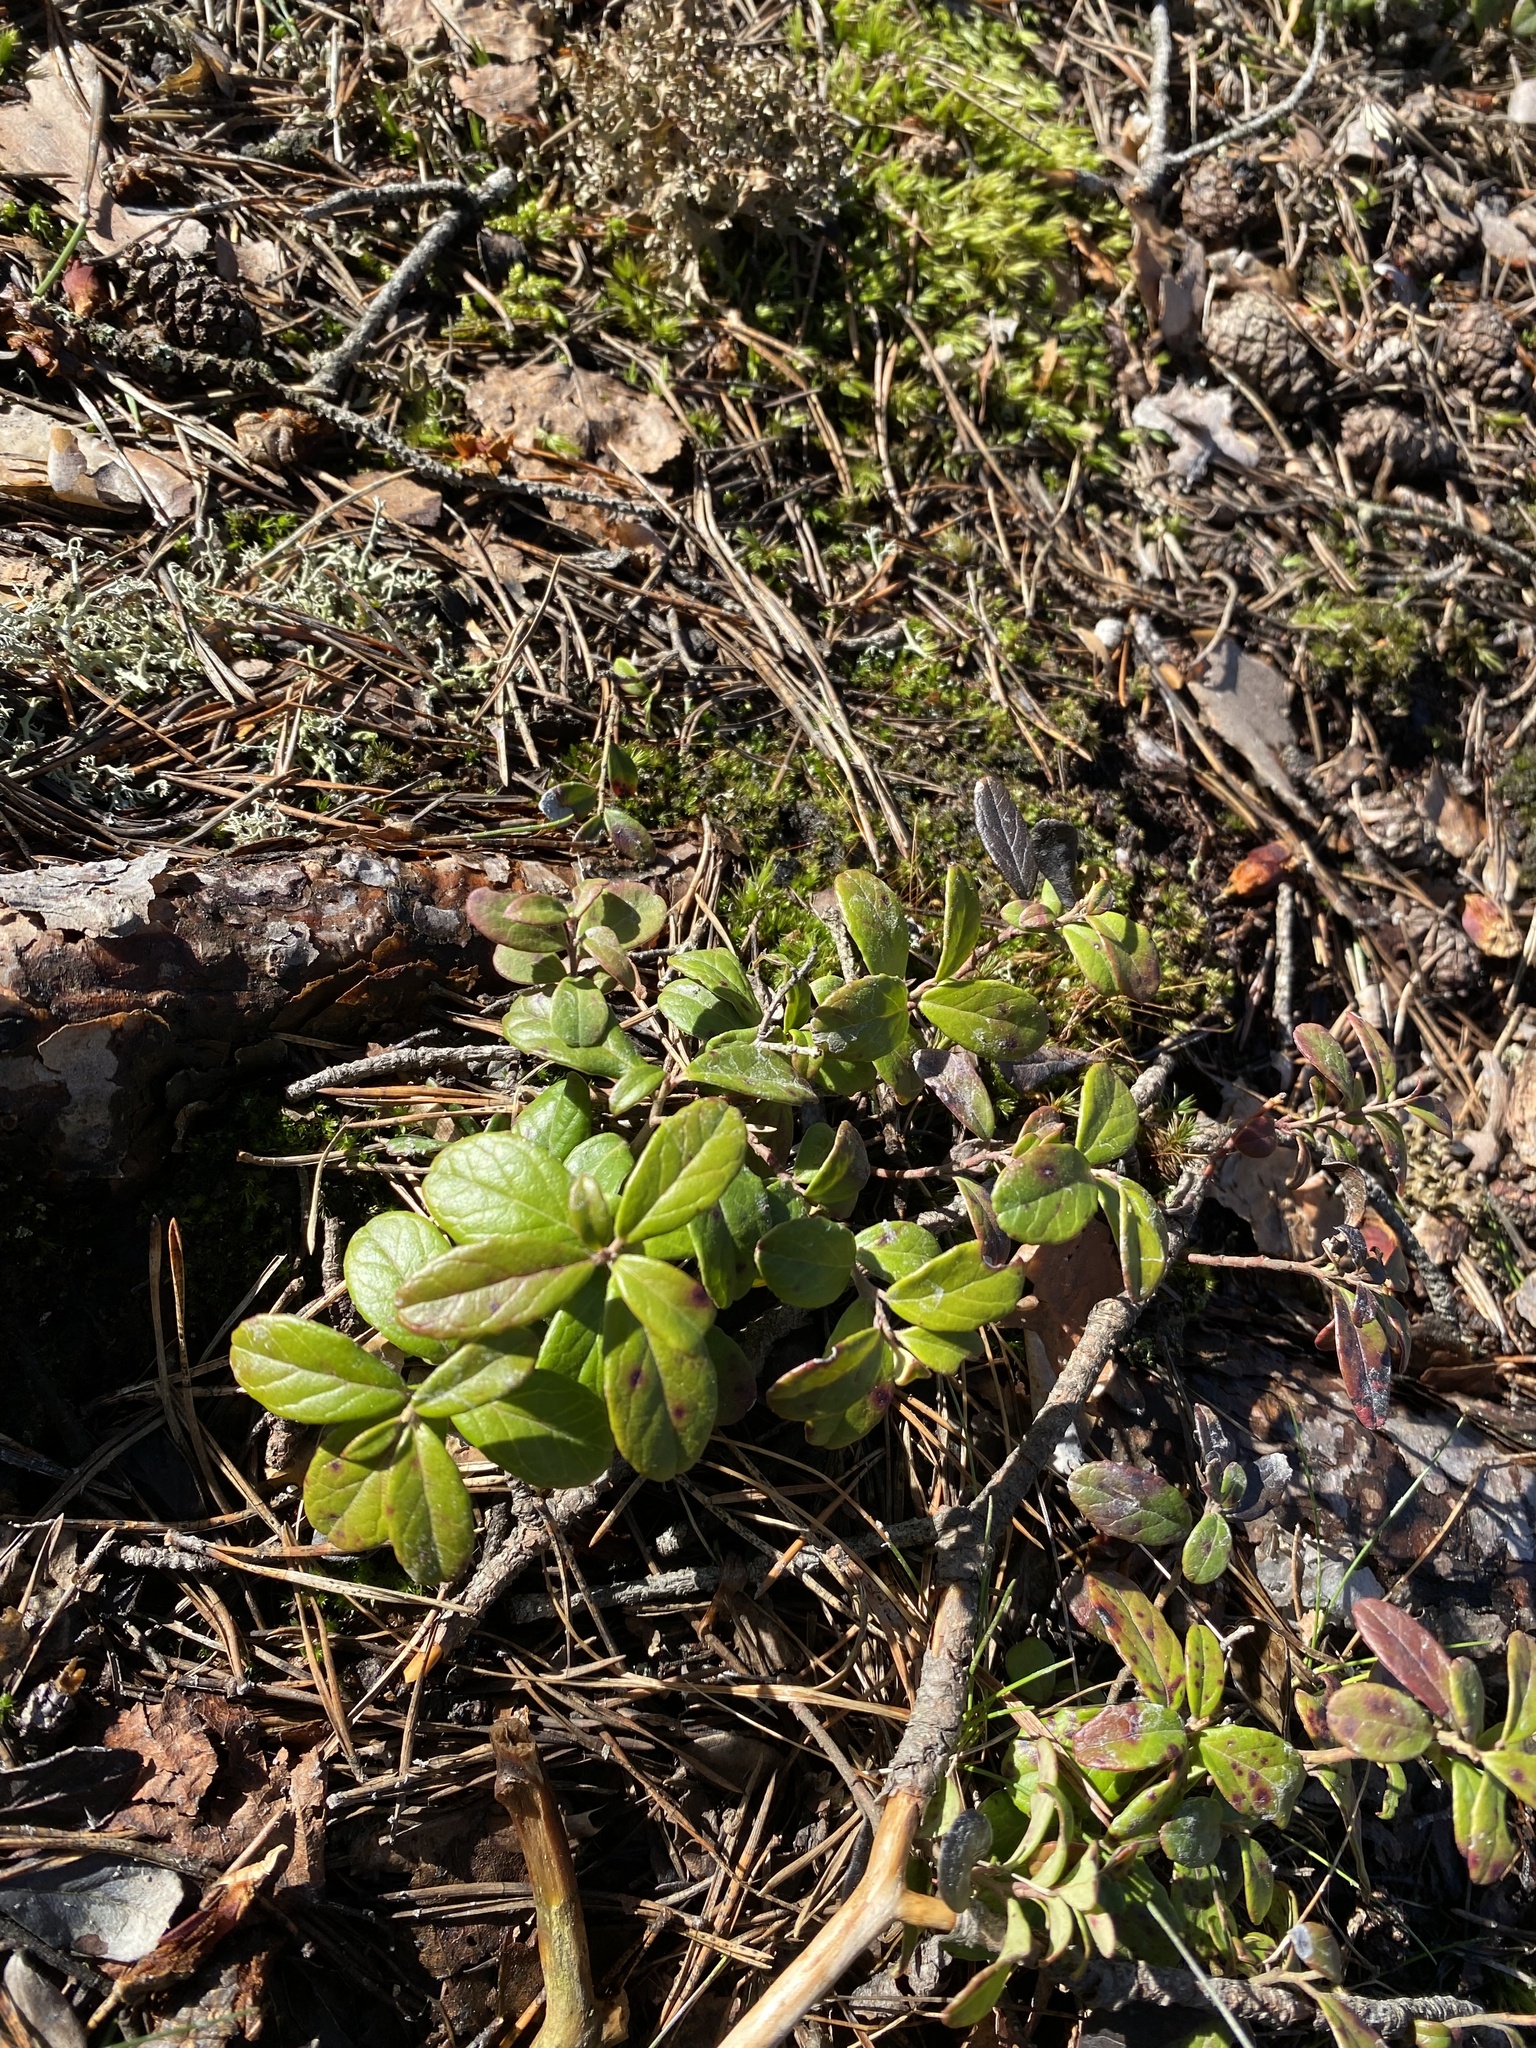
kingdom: Plantae
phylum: Tracheophyta
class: Magnoliopsida
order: Ericales
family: Ericaceae
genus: Vaccinium
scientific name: Vaccinium vitis-idaea
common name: Cowberry
